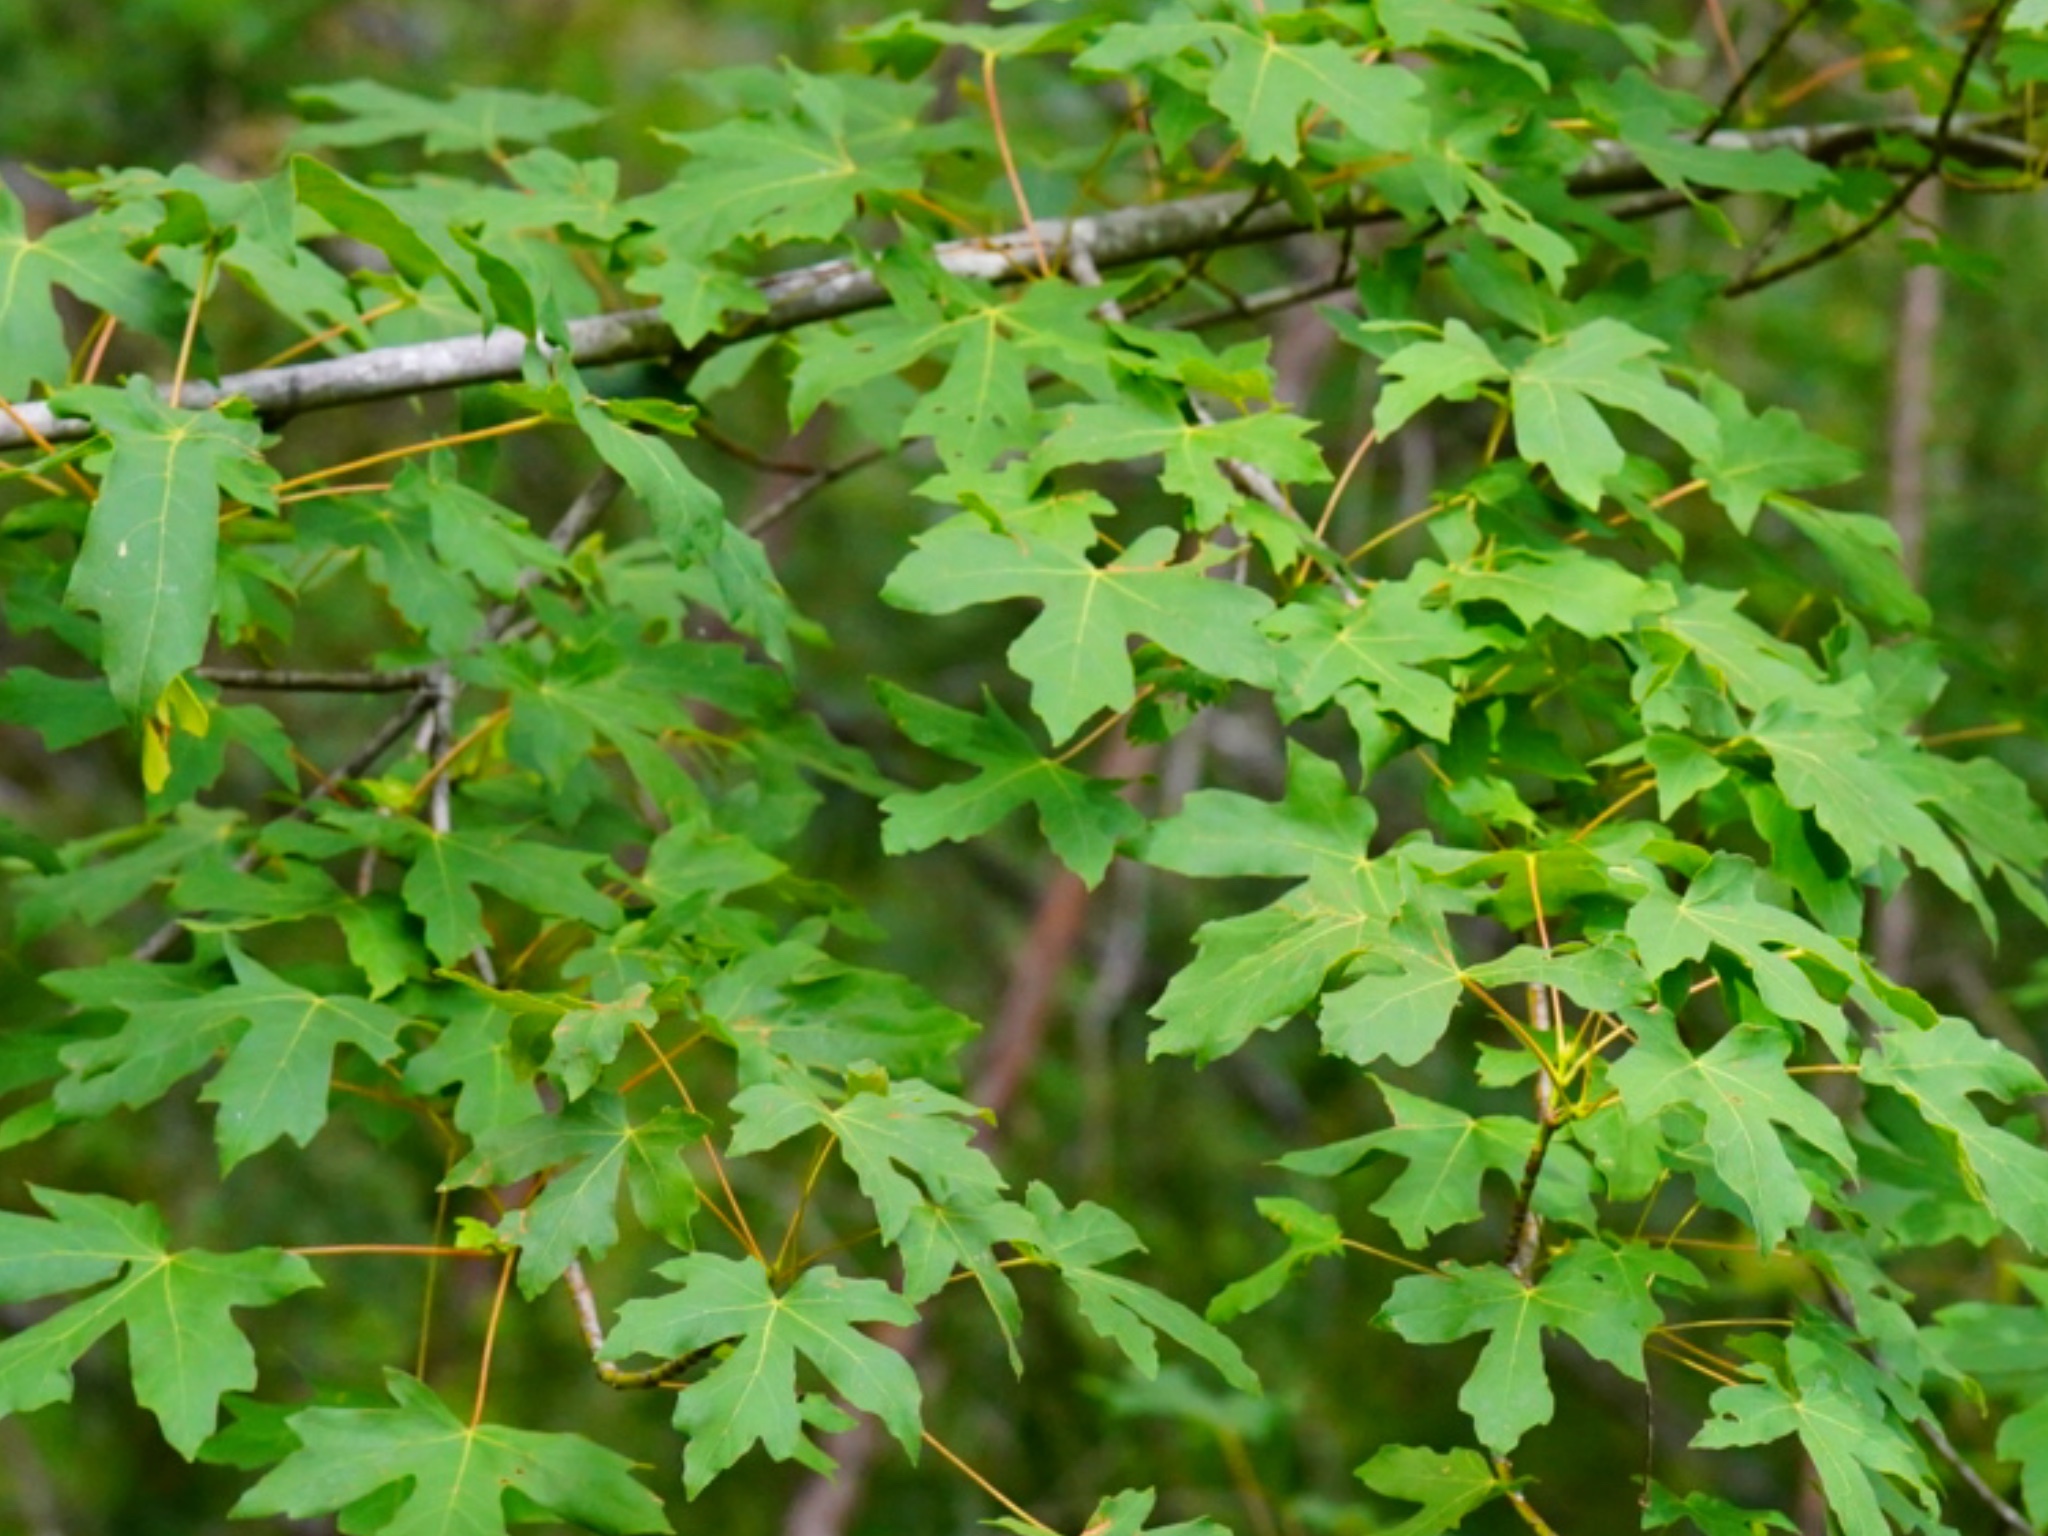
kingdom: Plantae
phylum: Tracheophyta
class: Magnoliopsida
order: Sapindales
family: Sapindaceae
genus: Acer
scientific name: Acer macrophyllum
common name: Oregon maple
